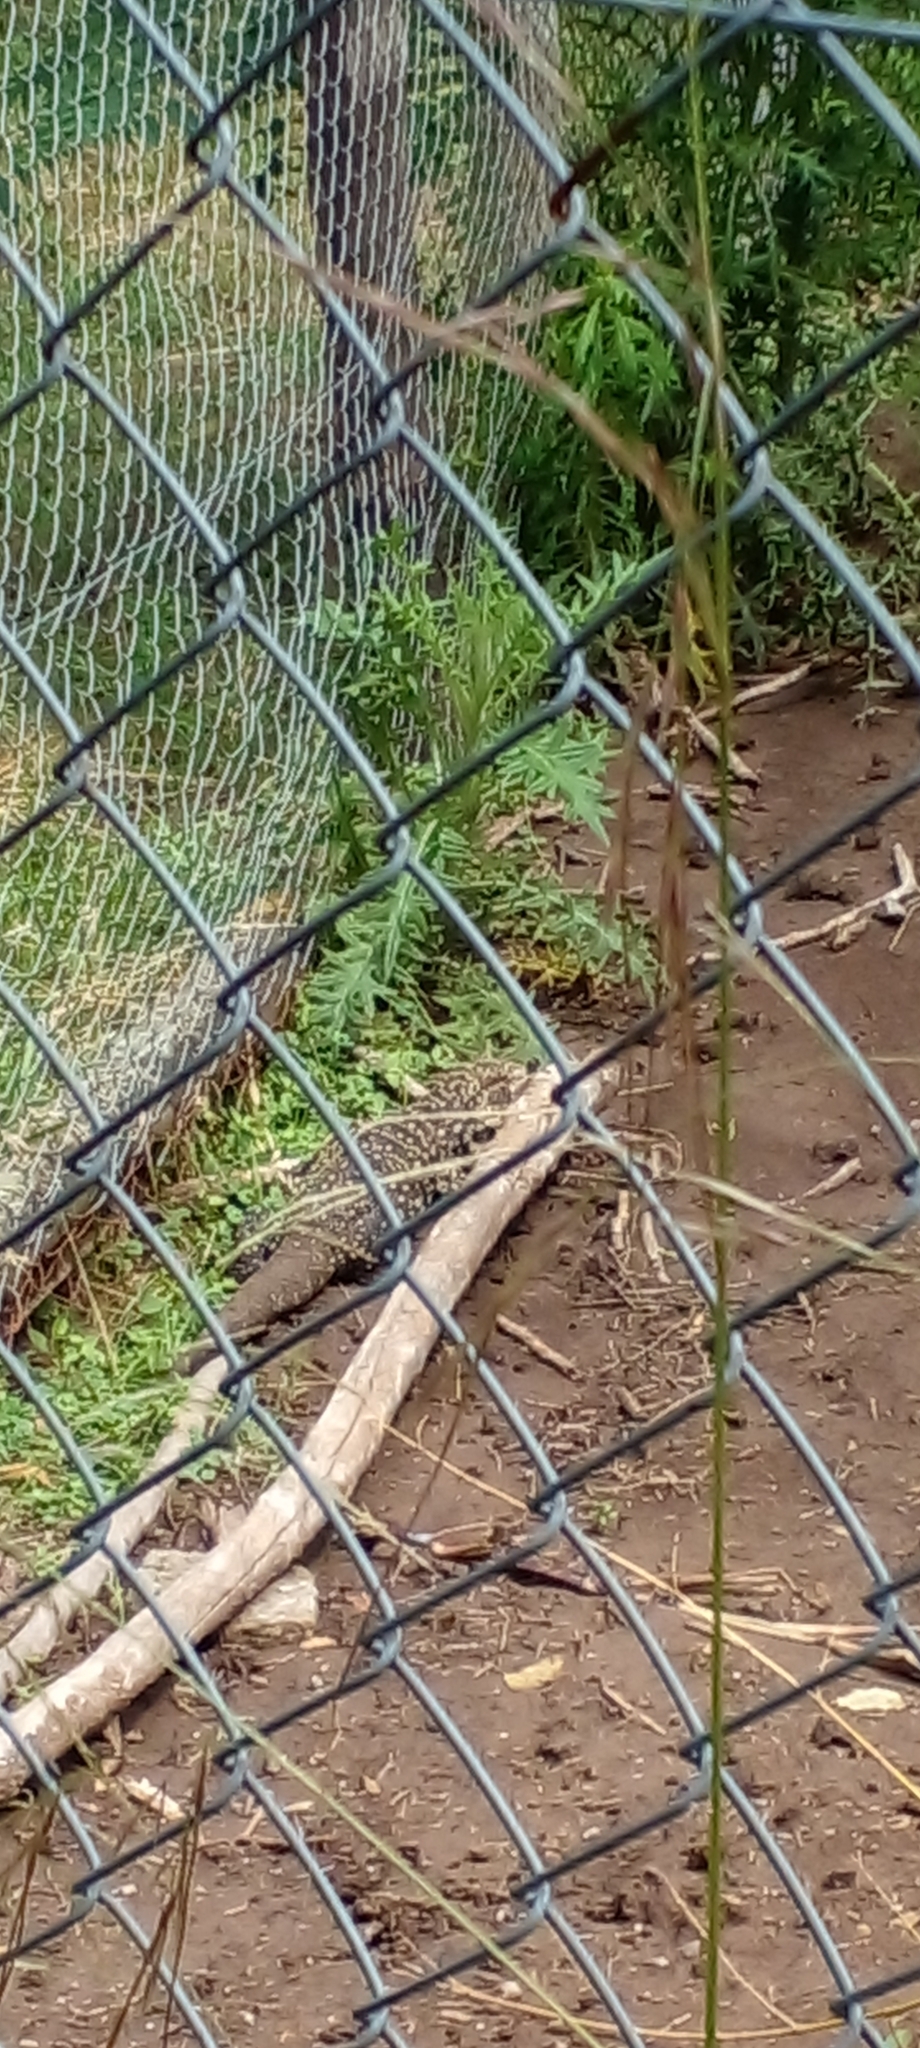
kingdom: Animalia
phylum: Chordata
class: Squamata
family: Teiidae
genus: Salvator
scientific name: Salvator merianae
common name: Argentine black and white tegu
